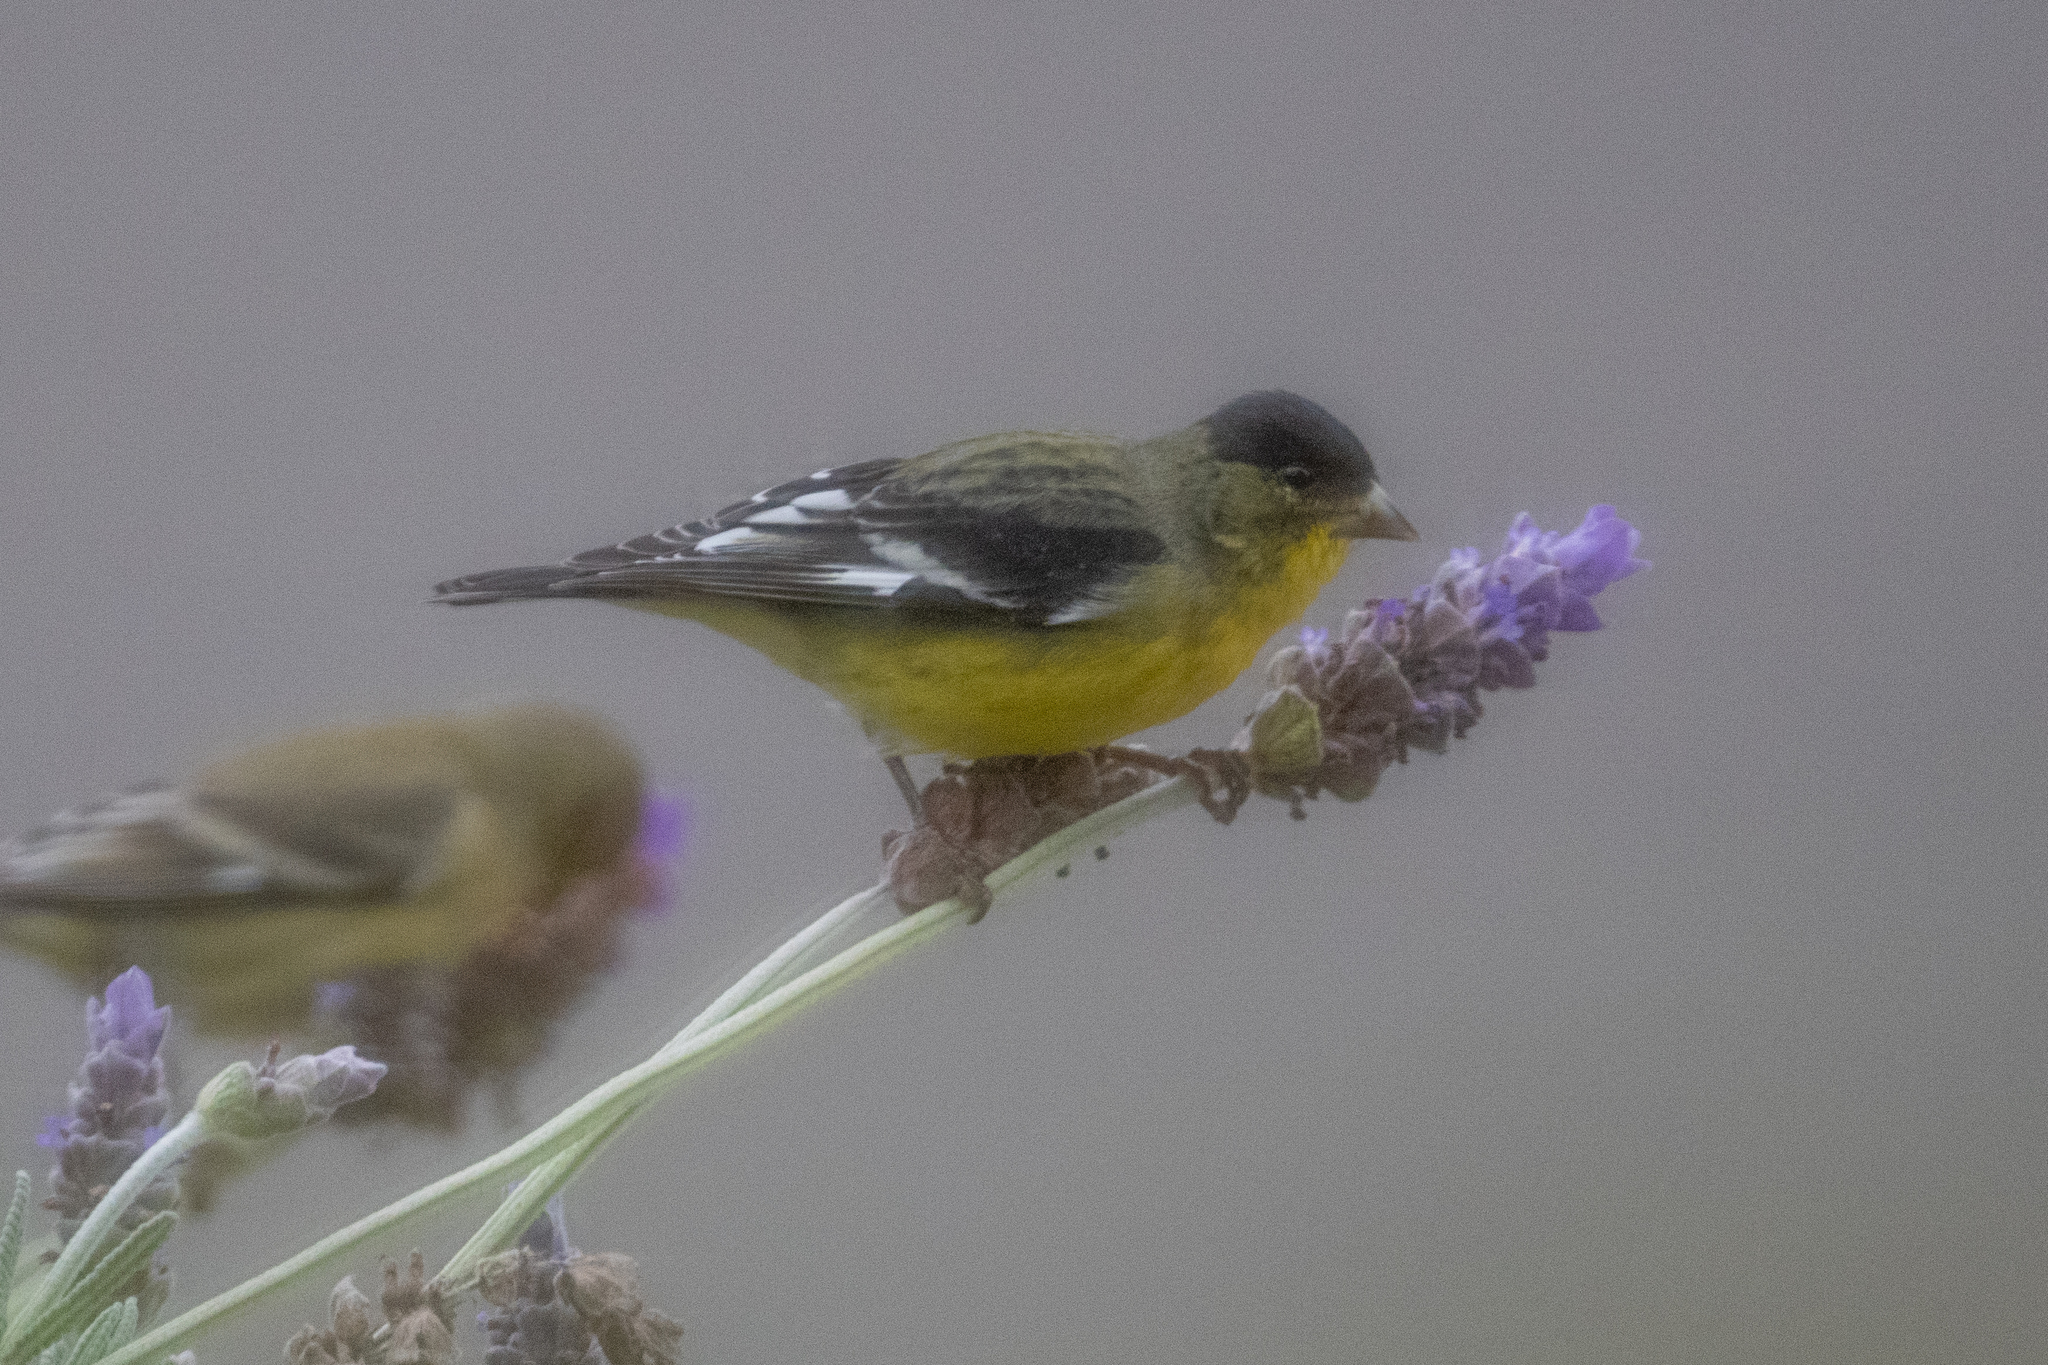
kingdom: Animalia
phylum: Chordata
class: Aves
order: Passeriformes
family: Fringillidae
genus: Spinus
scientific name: Spinus psaltria
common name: Lesser goldfinch
